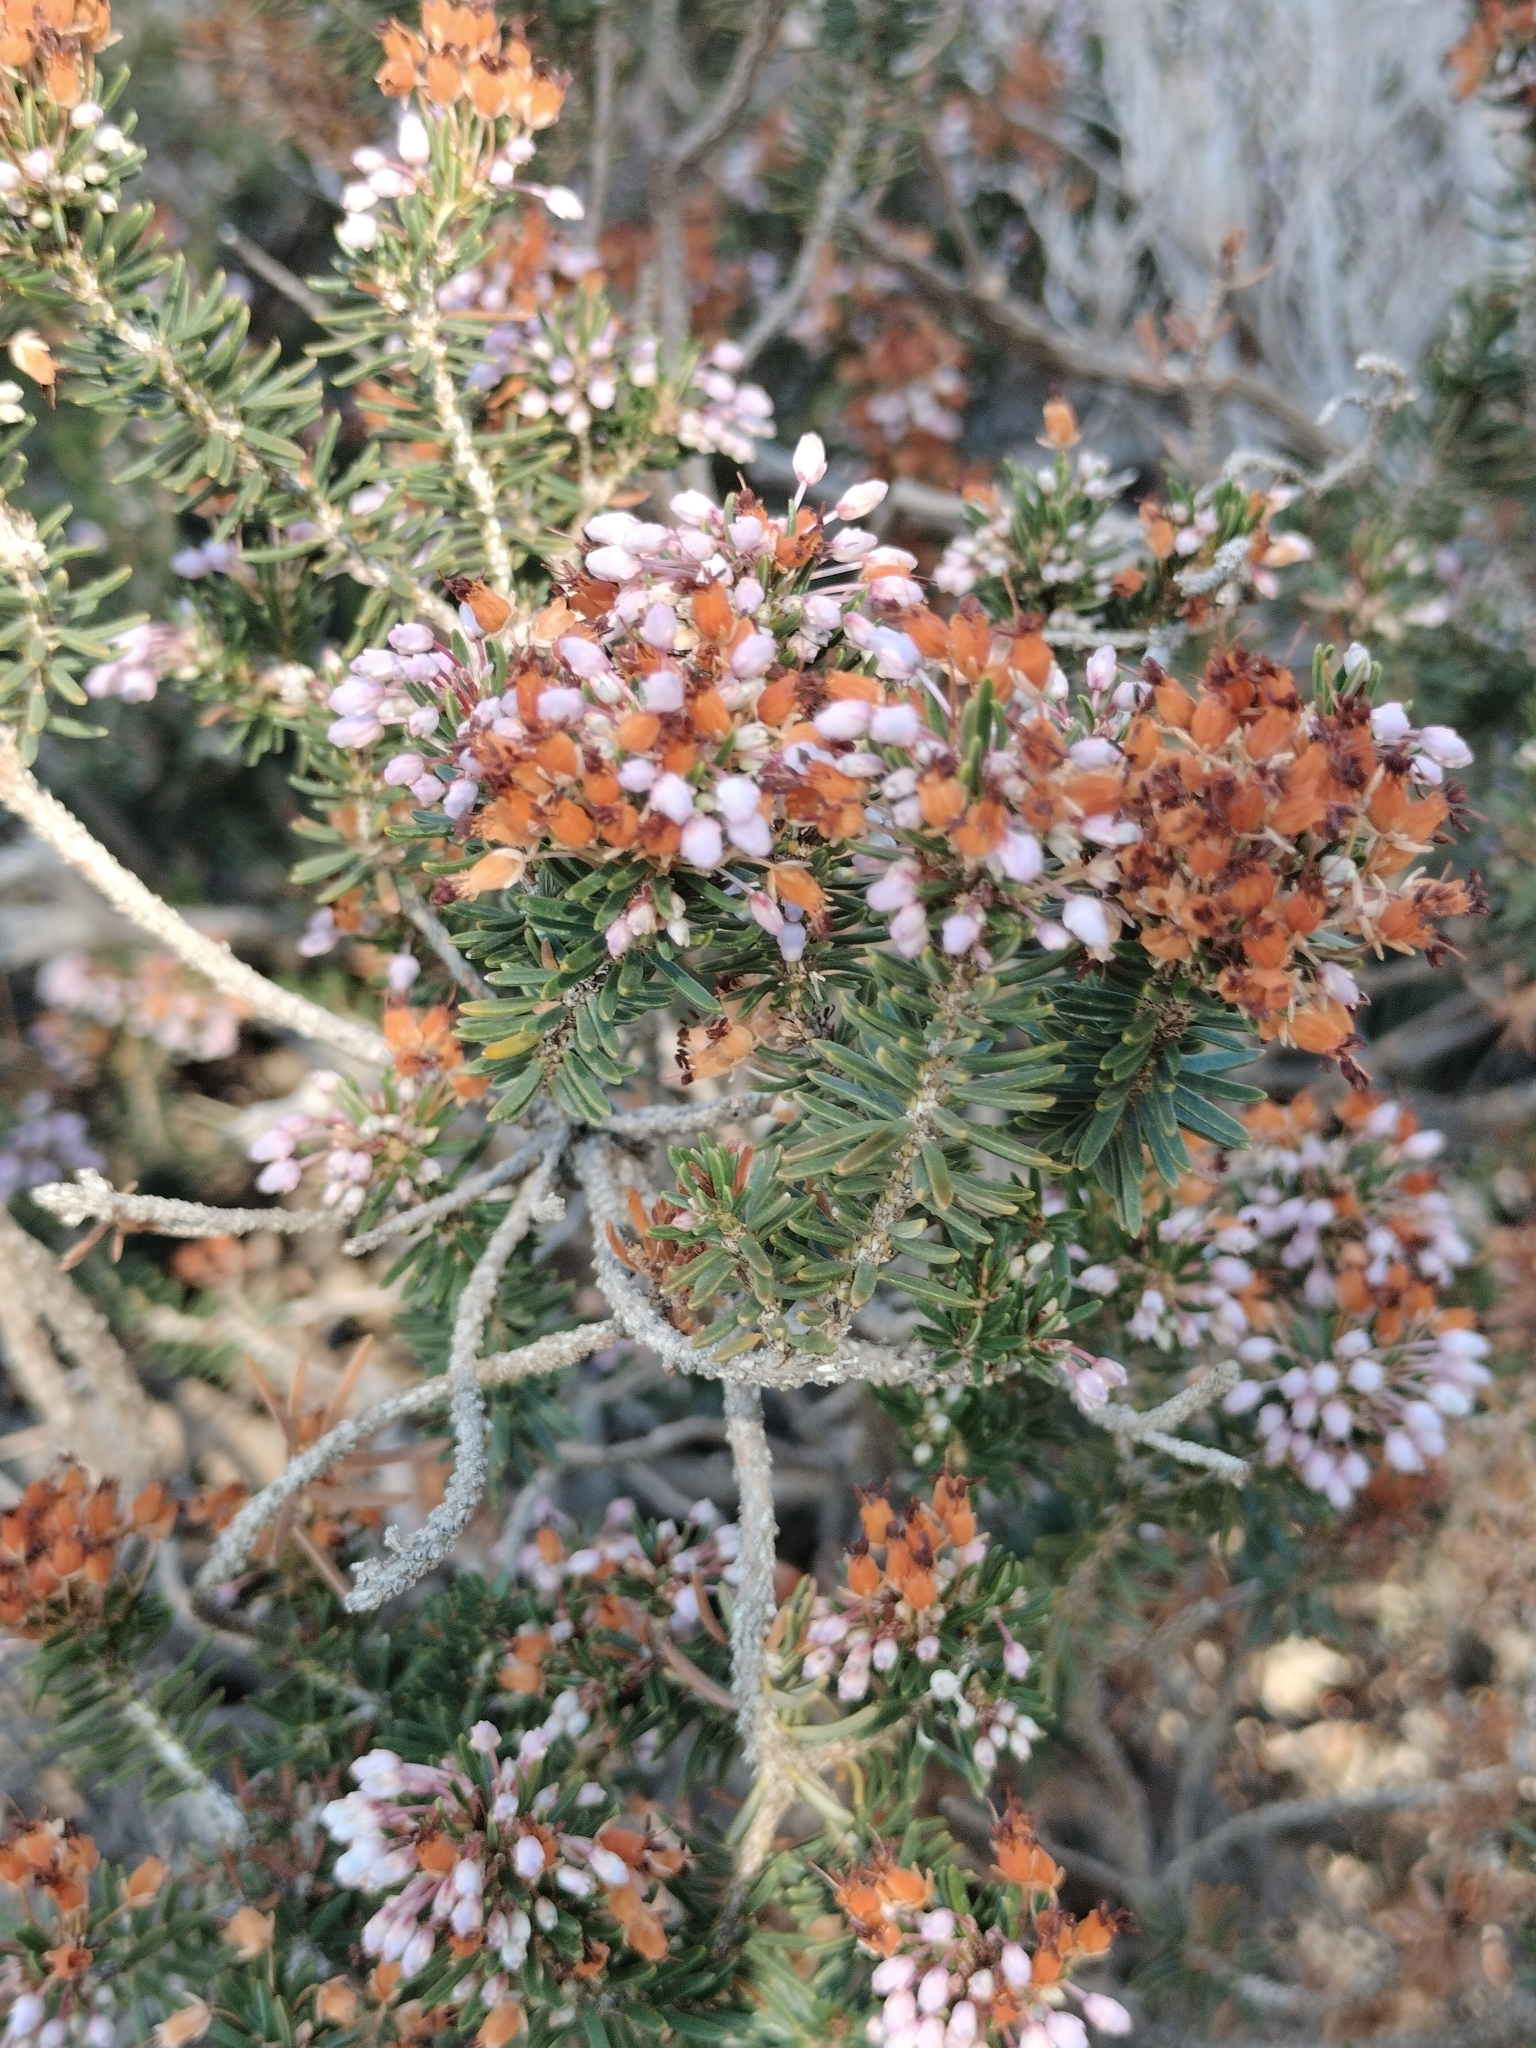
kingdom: Plantae
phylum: Tracheophyta
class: Magnoliopsida
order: Ericales
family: Ericaceae
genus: Erica
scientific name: Erica multiflora
